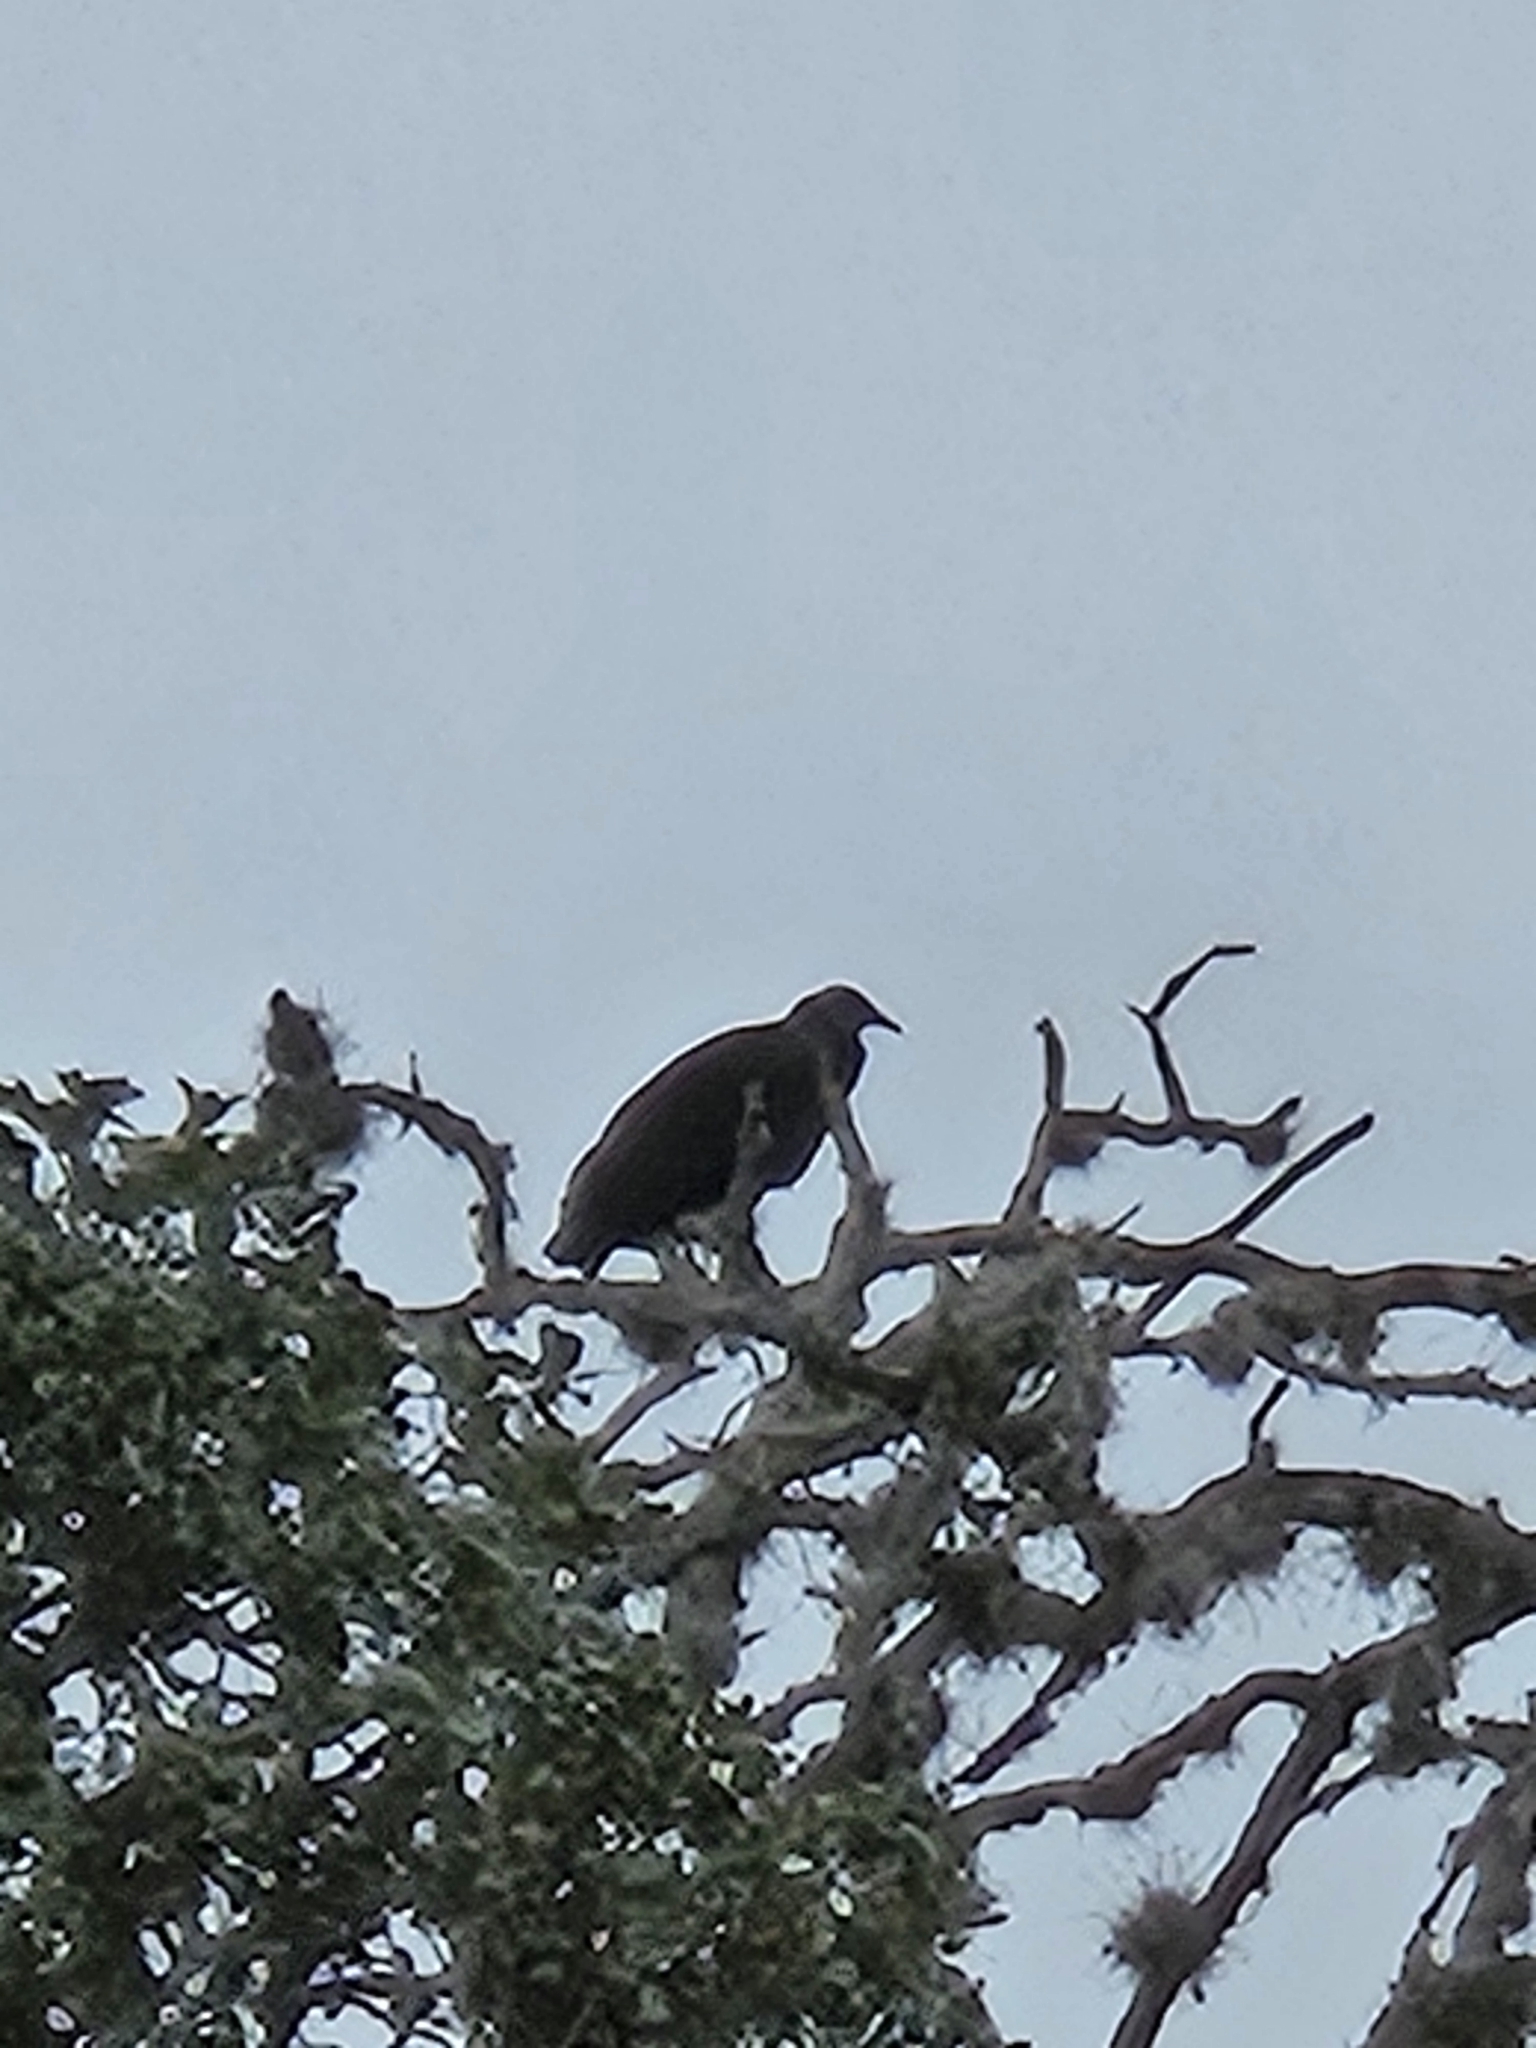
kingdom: Animalia
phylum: Chordata
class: Aves
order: Accipitriformes
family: Cathartidae
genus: Coragyps
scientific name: Coragyps atratus
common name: Black vulture
